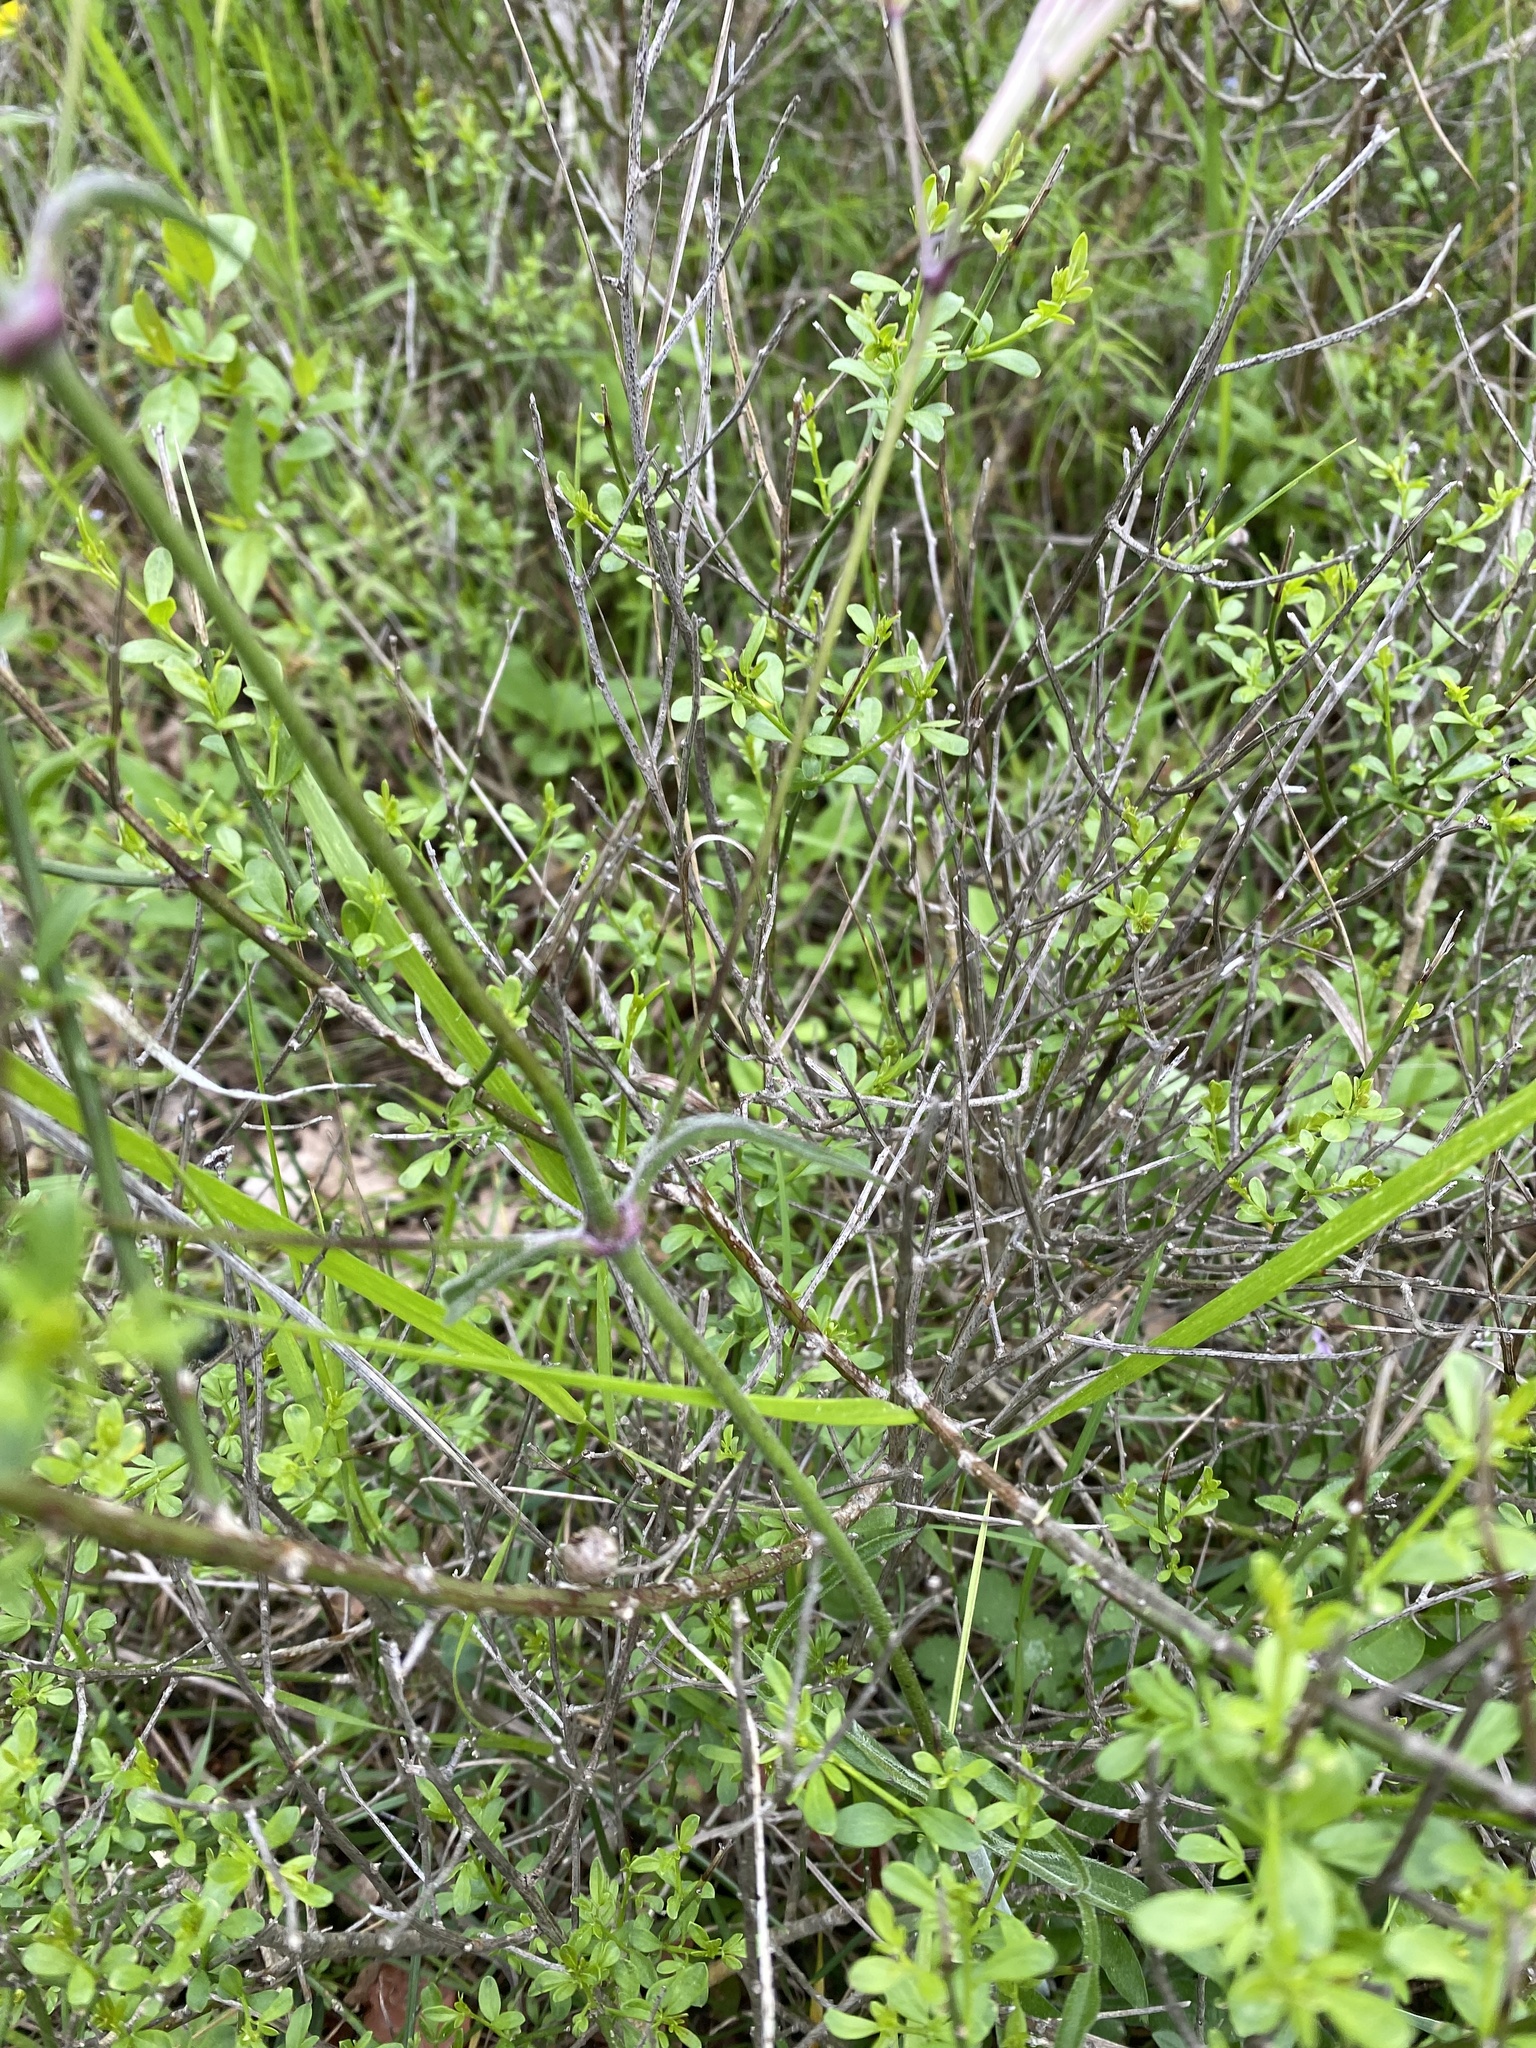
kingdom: Plantae
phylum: Tracheophyta
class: Magnoliopsida
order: Caryophyllales
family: Caryophyllaceae
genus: Silene
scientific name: Silene italica
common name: Italian catchfly
